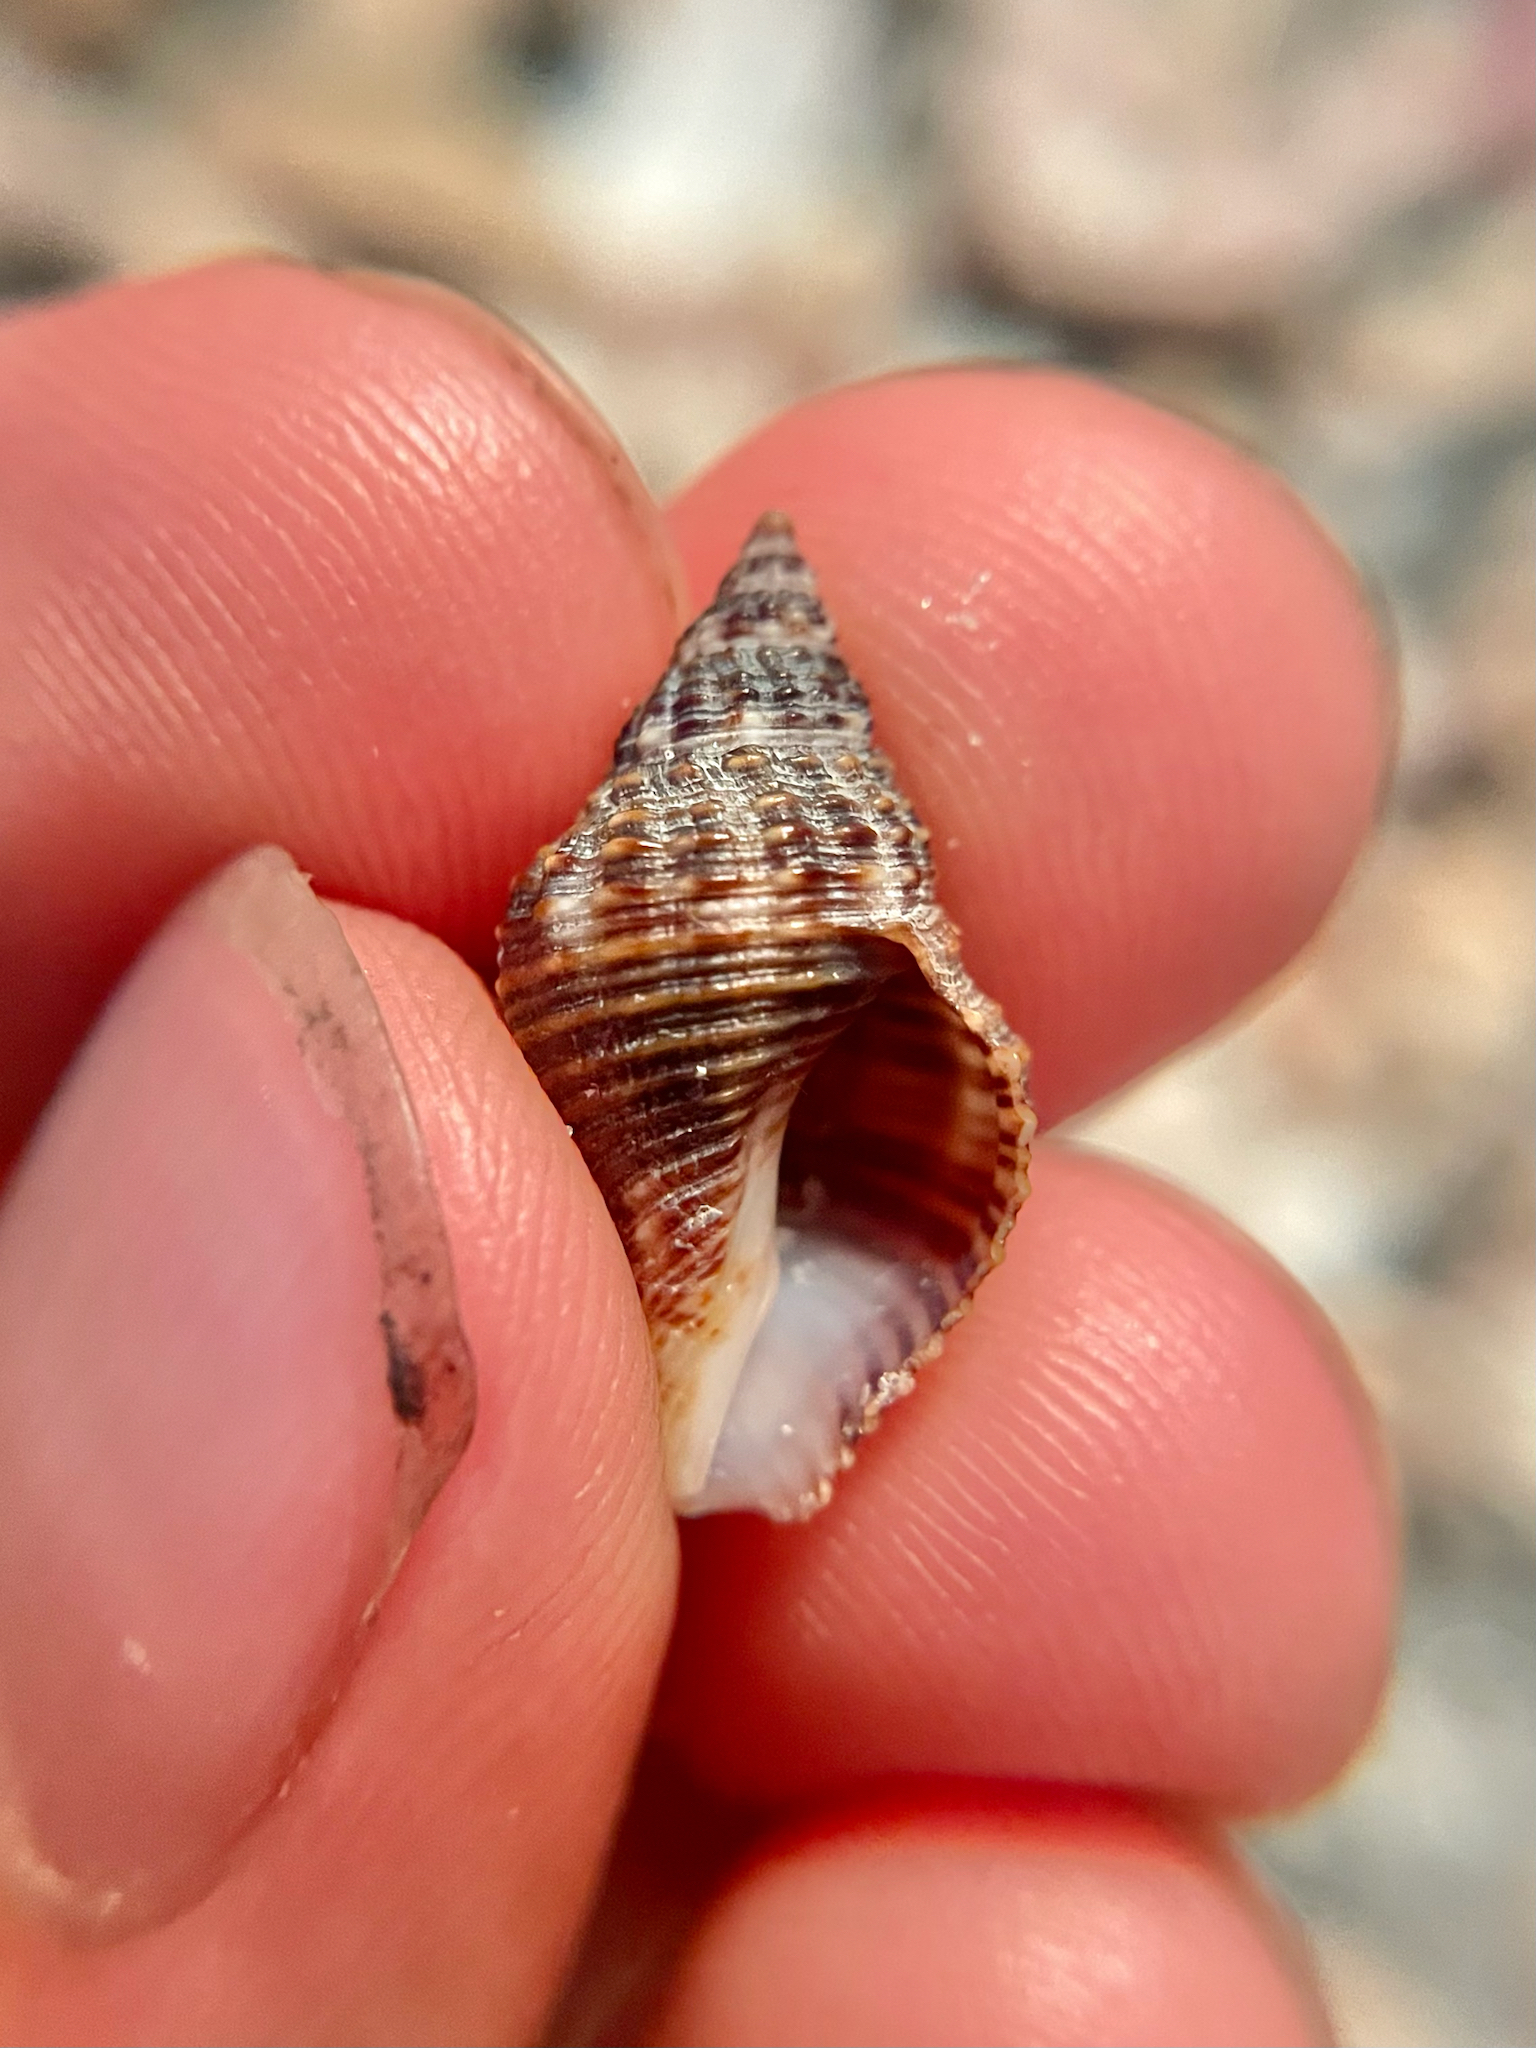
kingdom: Animalia
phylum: Mollusca
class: Gastropoda
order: Neogastropoda
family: Pisaniidae
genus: Gemophos
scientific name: Gemophos tinctus
